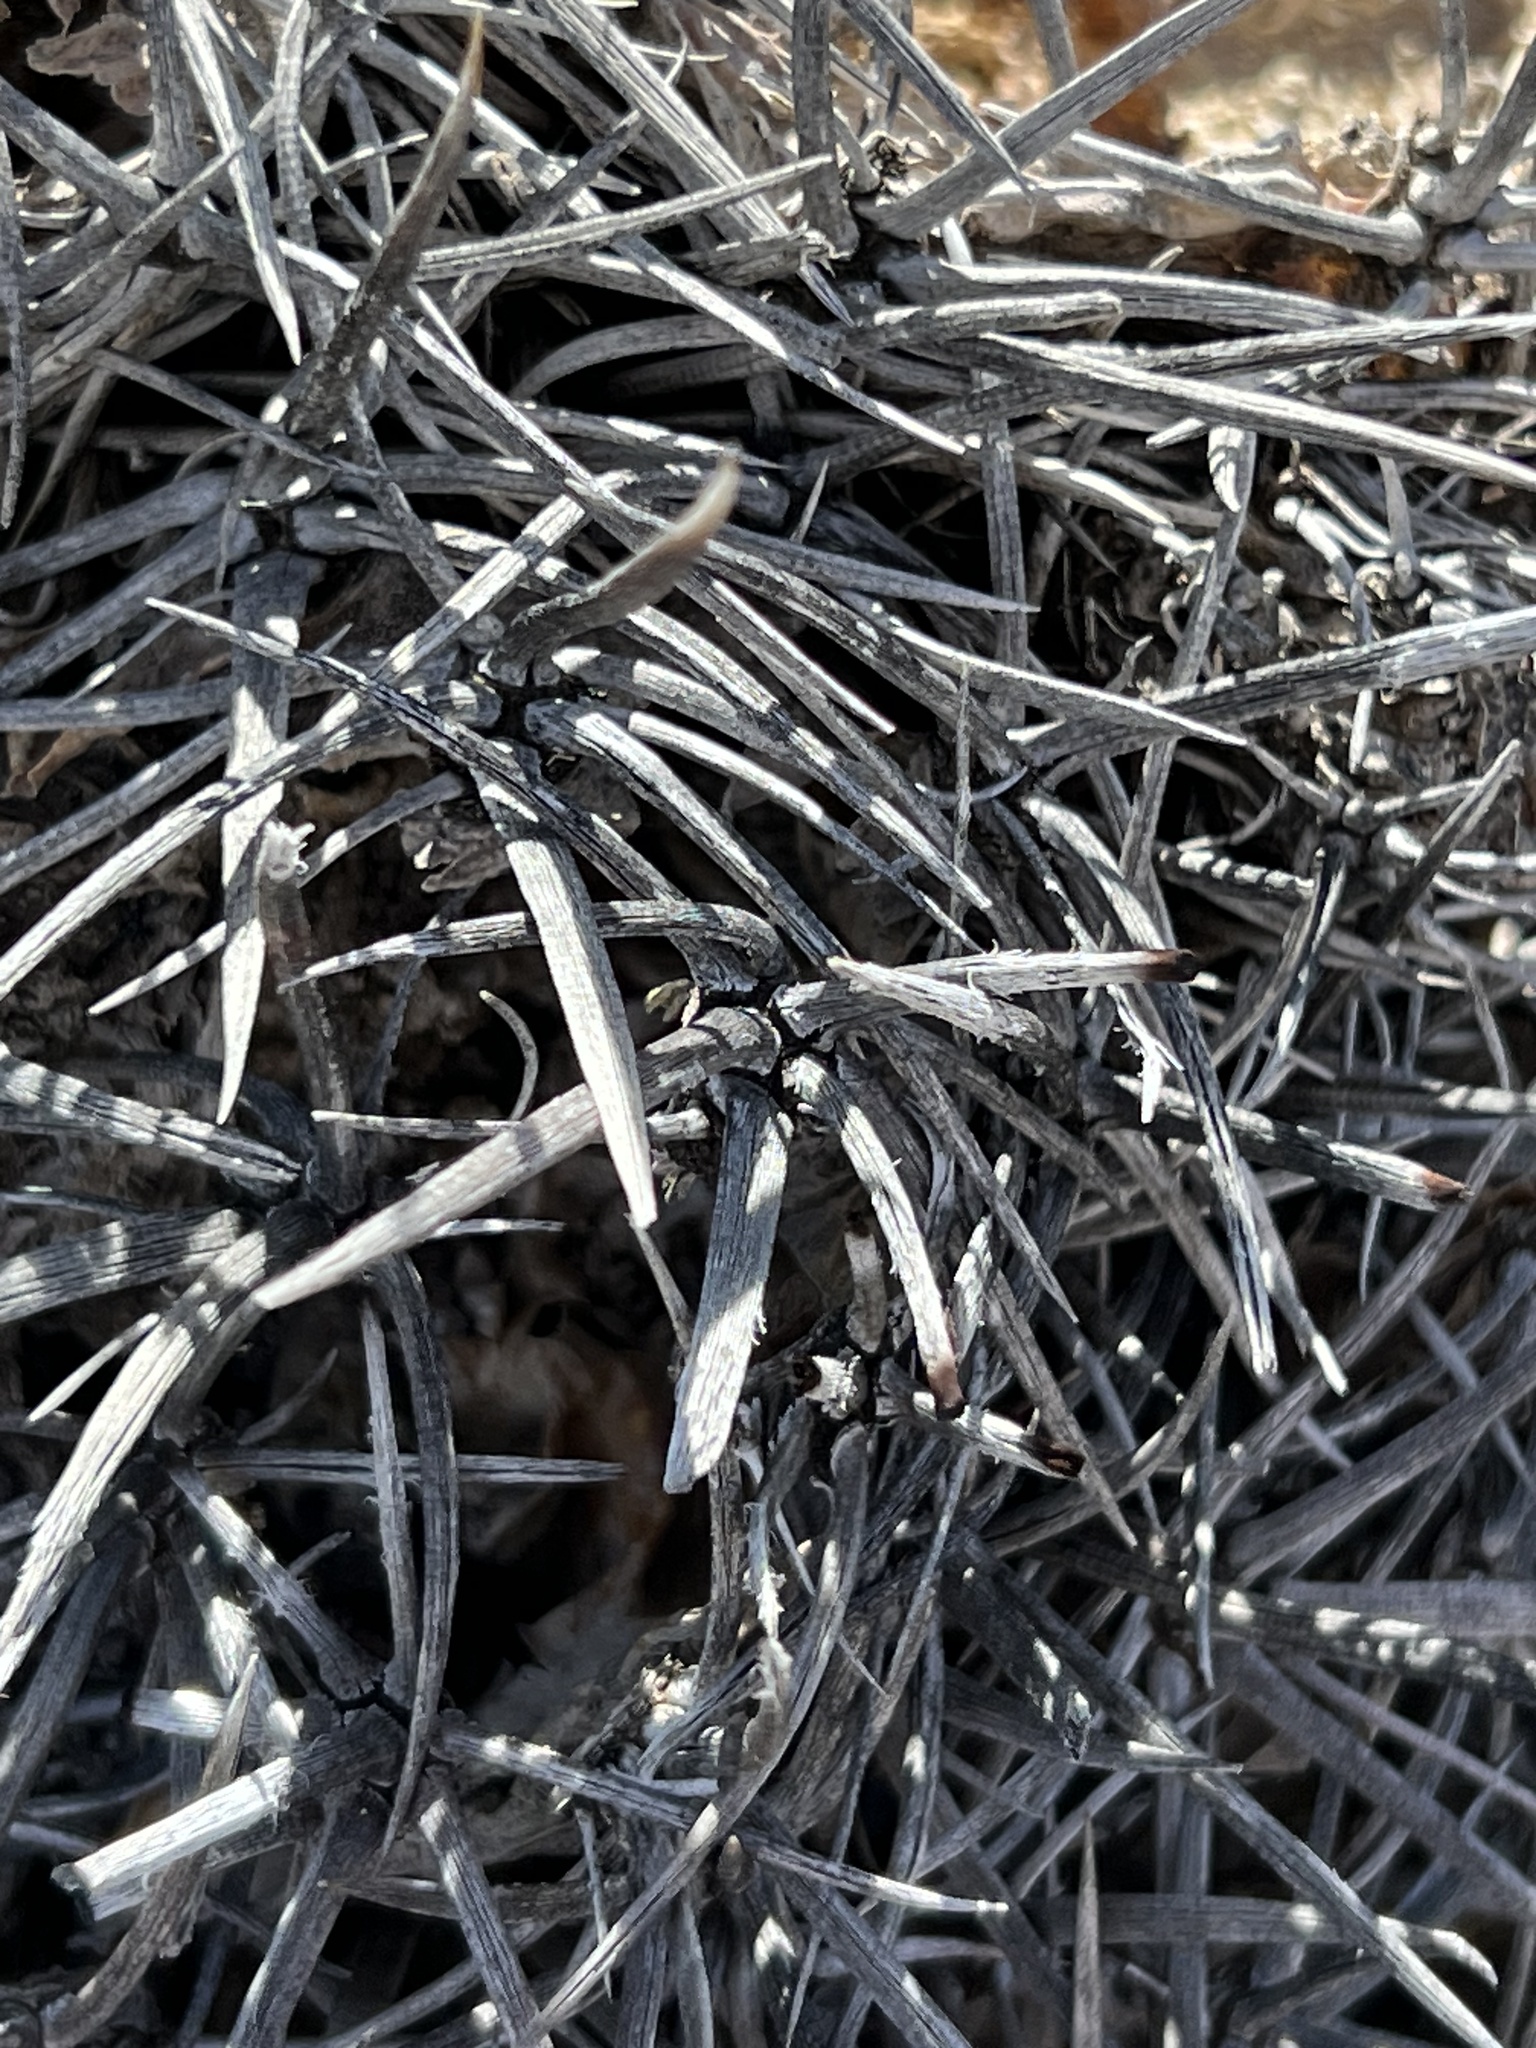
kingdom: Plantae
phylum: Tracheophyta
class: Magnoliopsida
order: Caryophyllales
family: Cactaceae
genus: Echinocactus
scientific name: Echinocactus polycephalus
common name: Cottontop cactus
